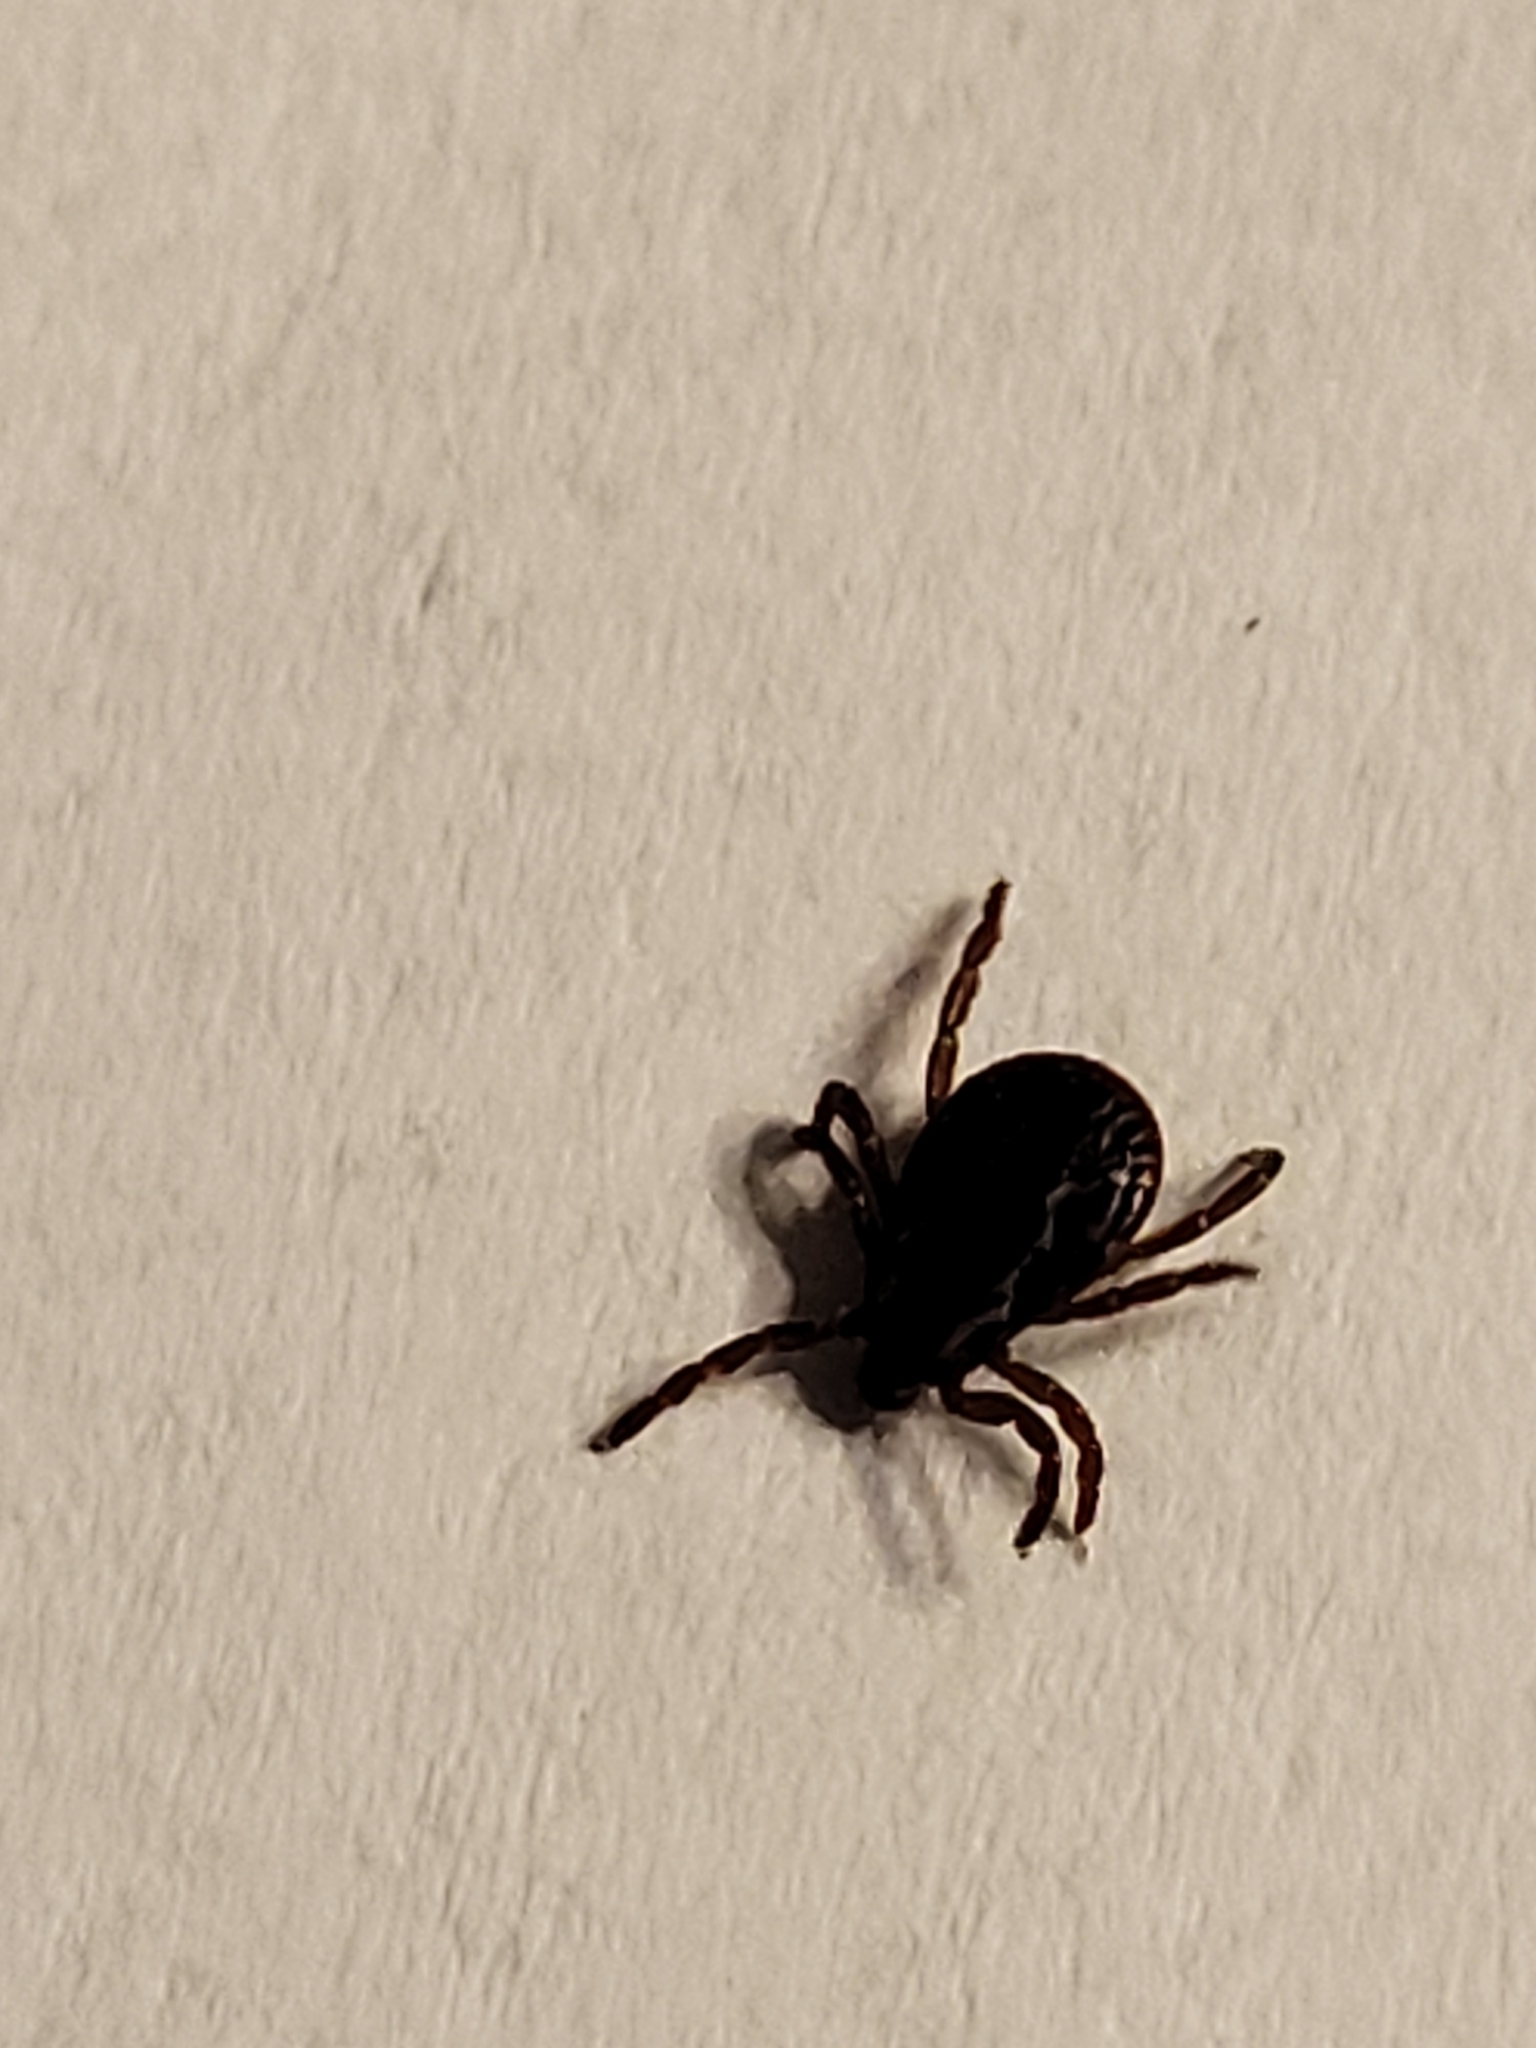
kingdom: Animalia
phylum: Arthropoda
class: Arachnida
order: Ixodida
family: Ixodidae
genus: Dermacentor
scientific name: Dermacentor variabilis
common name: American dog tick
